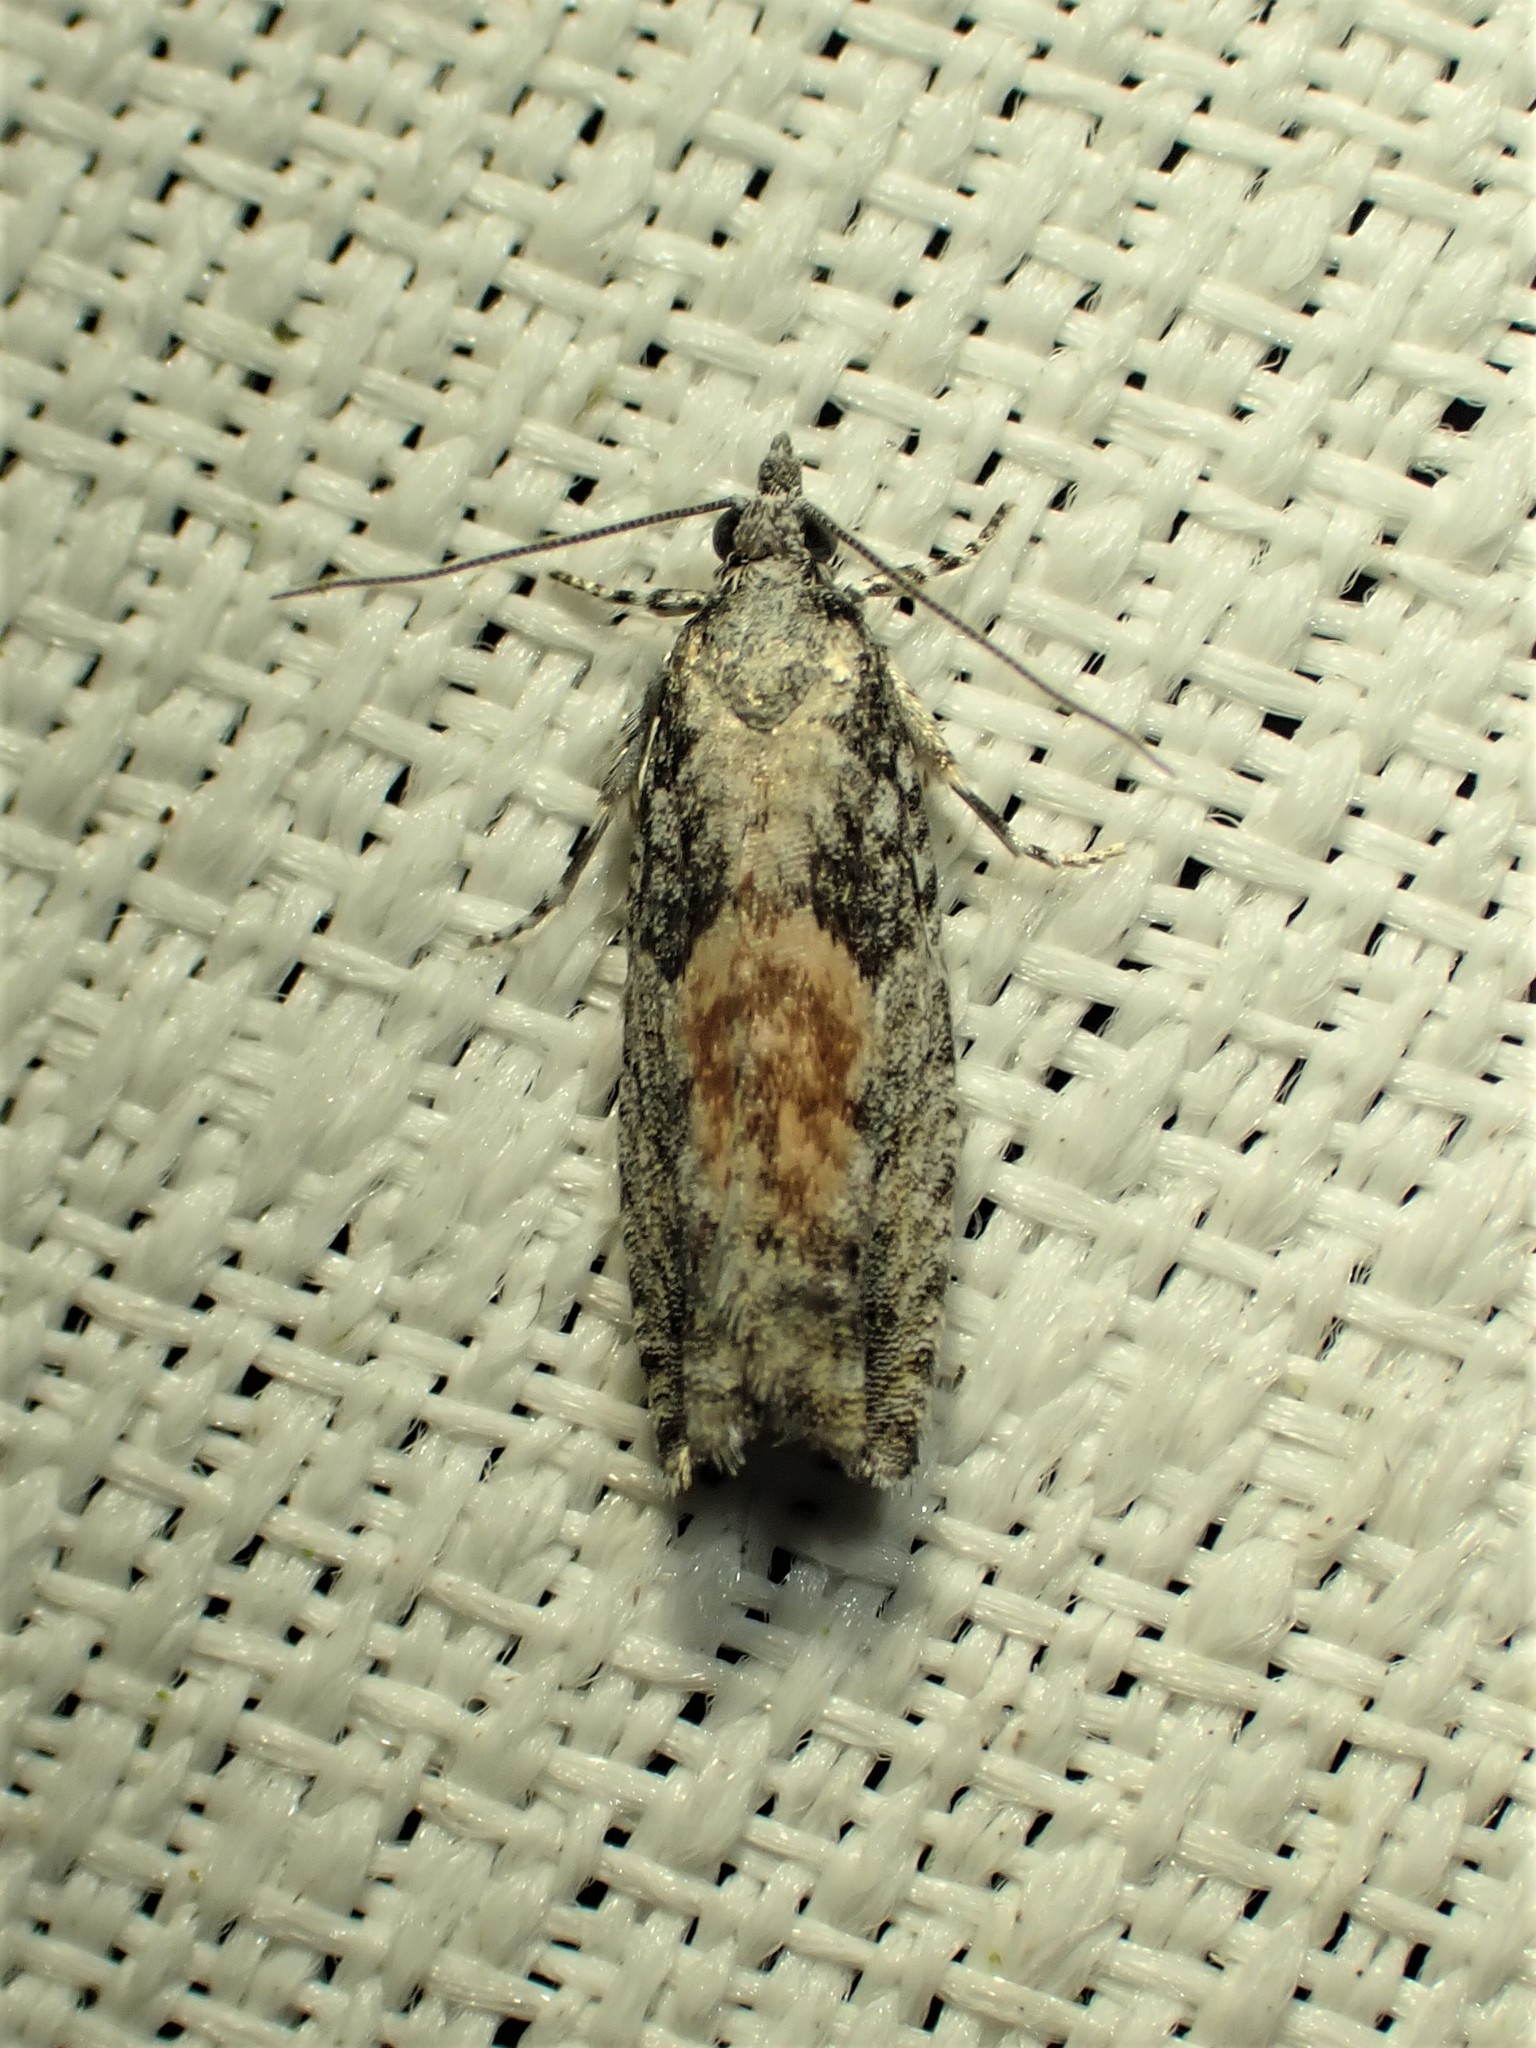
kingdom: Animalia
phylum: Arthropoda
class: Insecta
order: Lepidoptera
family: Tortricidae
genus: Epinotia
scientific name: Epinotia cinereana
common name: Grey aspen bell
